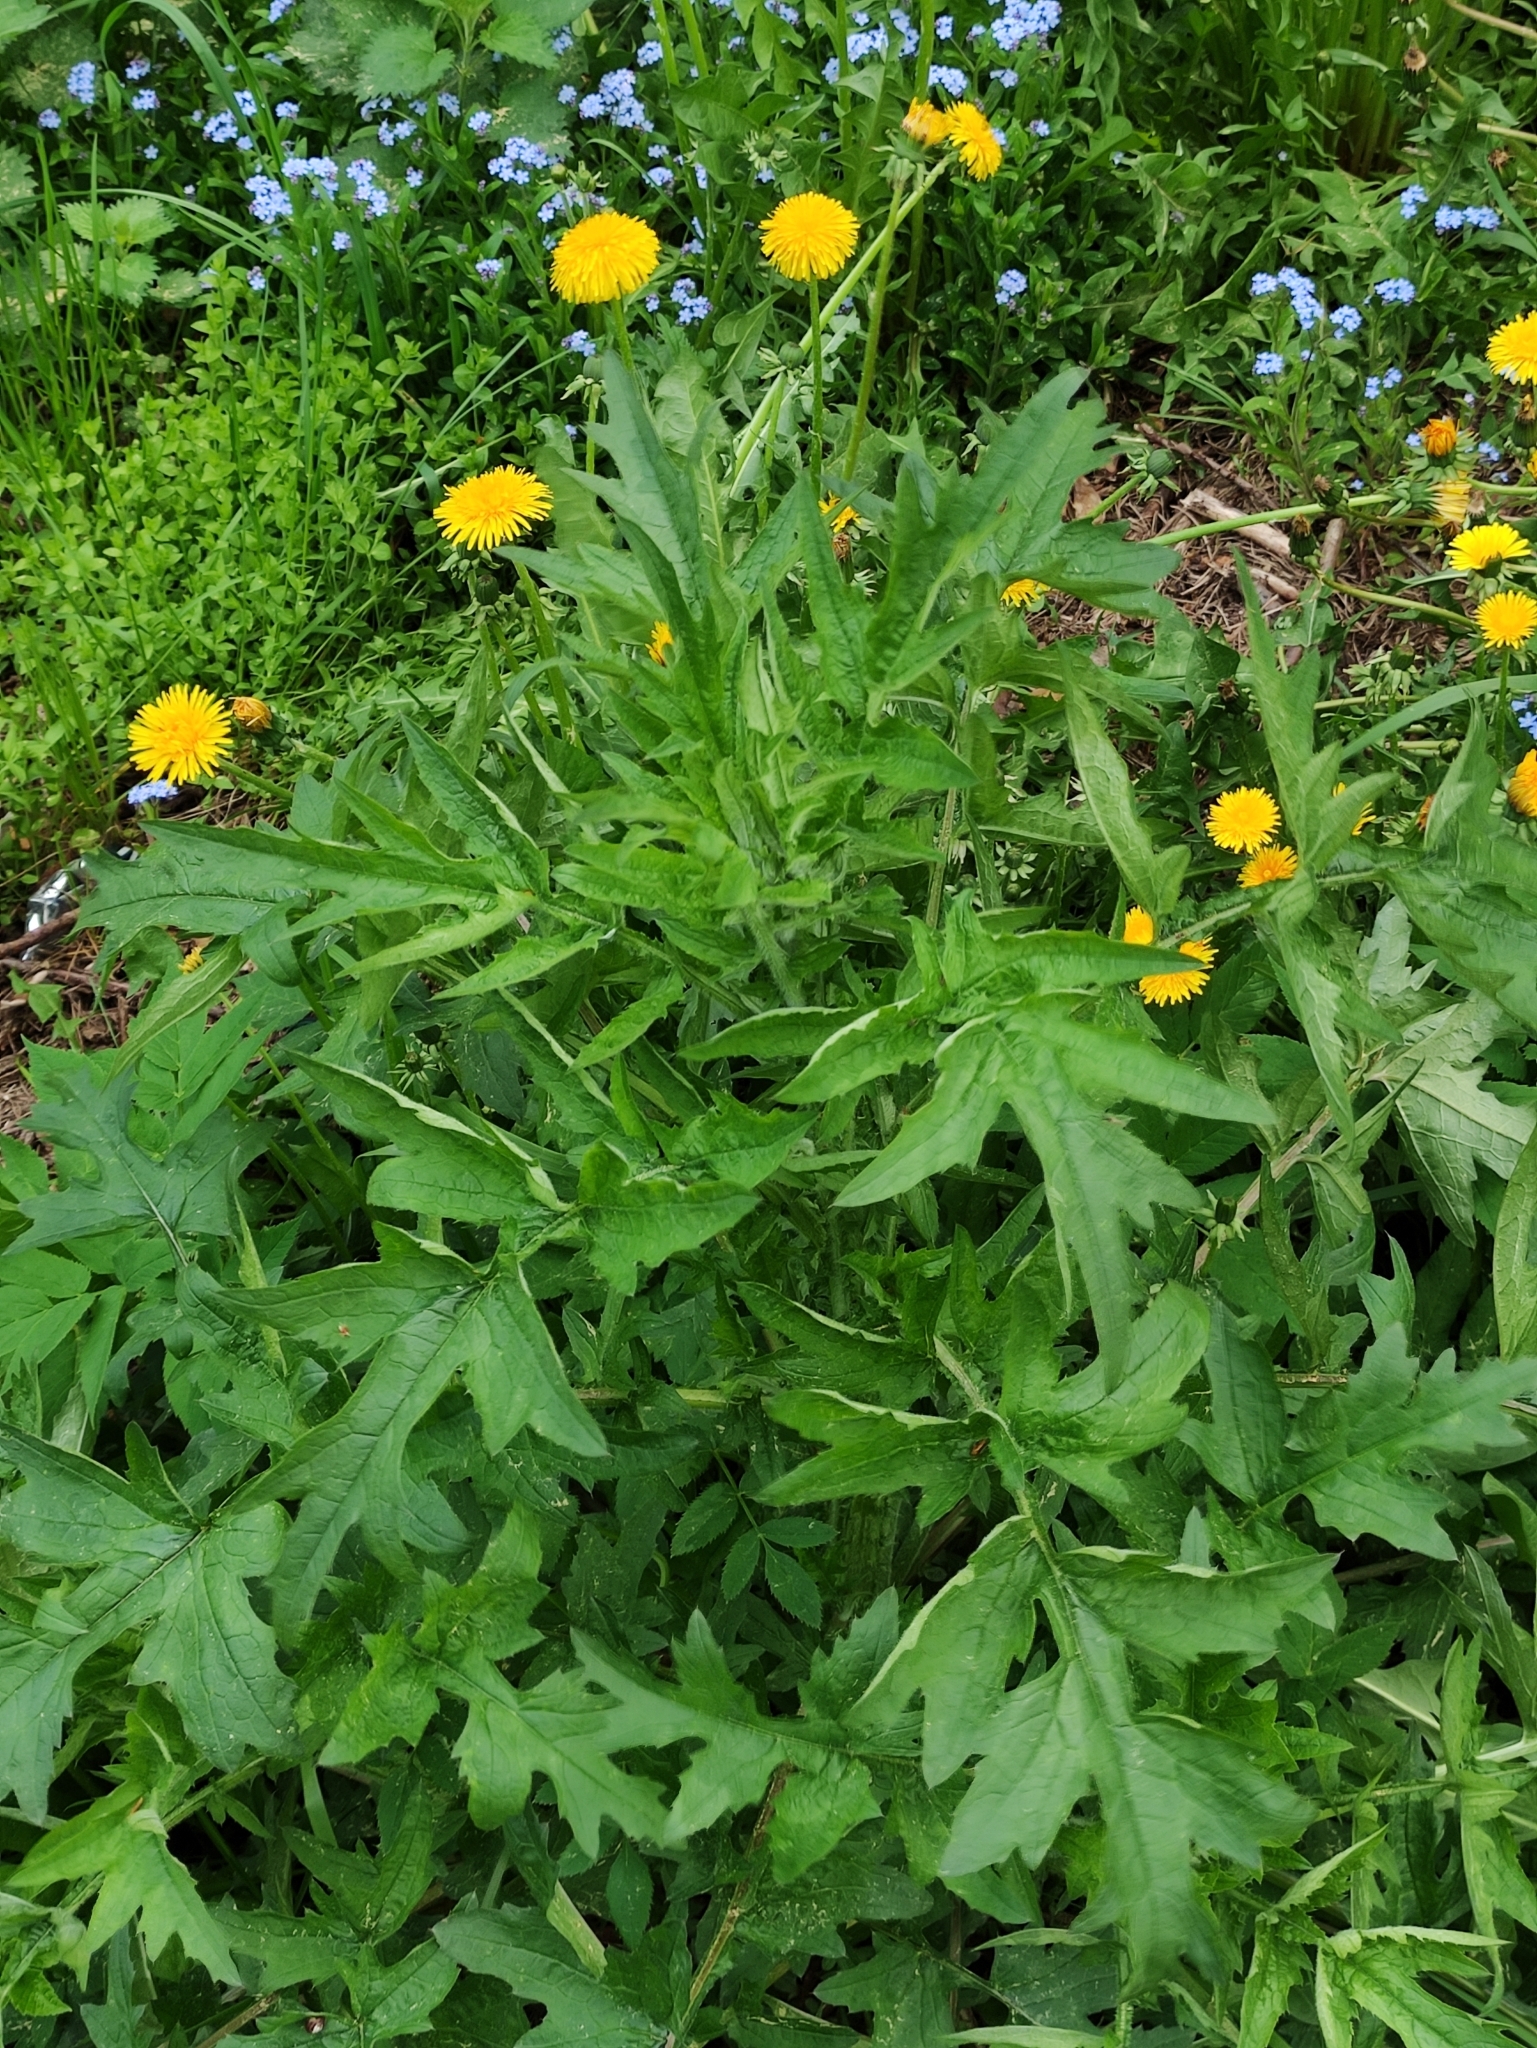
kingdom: Plantae
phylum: Tracheophyta
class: Magnoliopsida
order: Asterales
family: Asteraceae
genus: Carduus
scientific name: Carduus crispus
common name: Welted thistle
